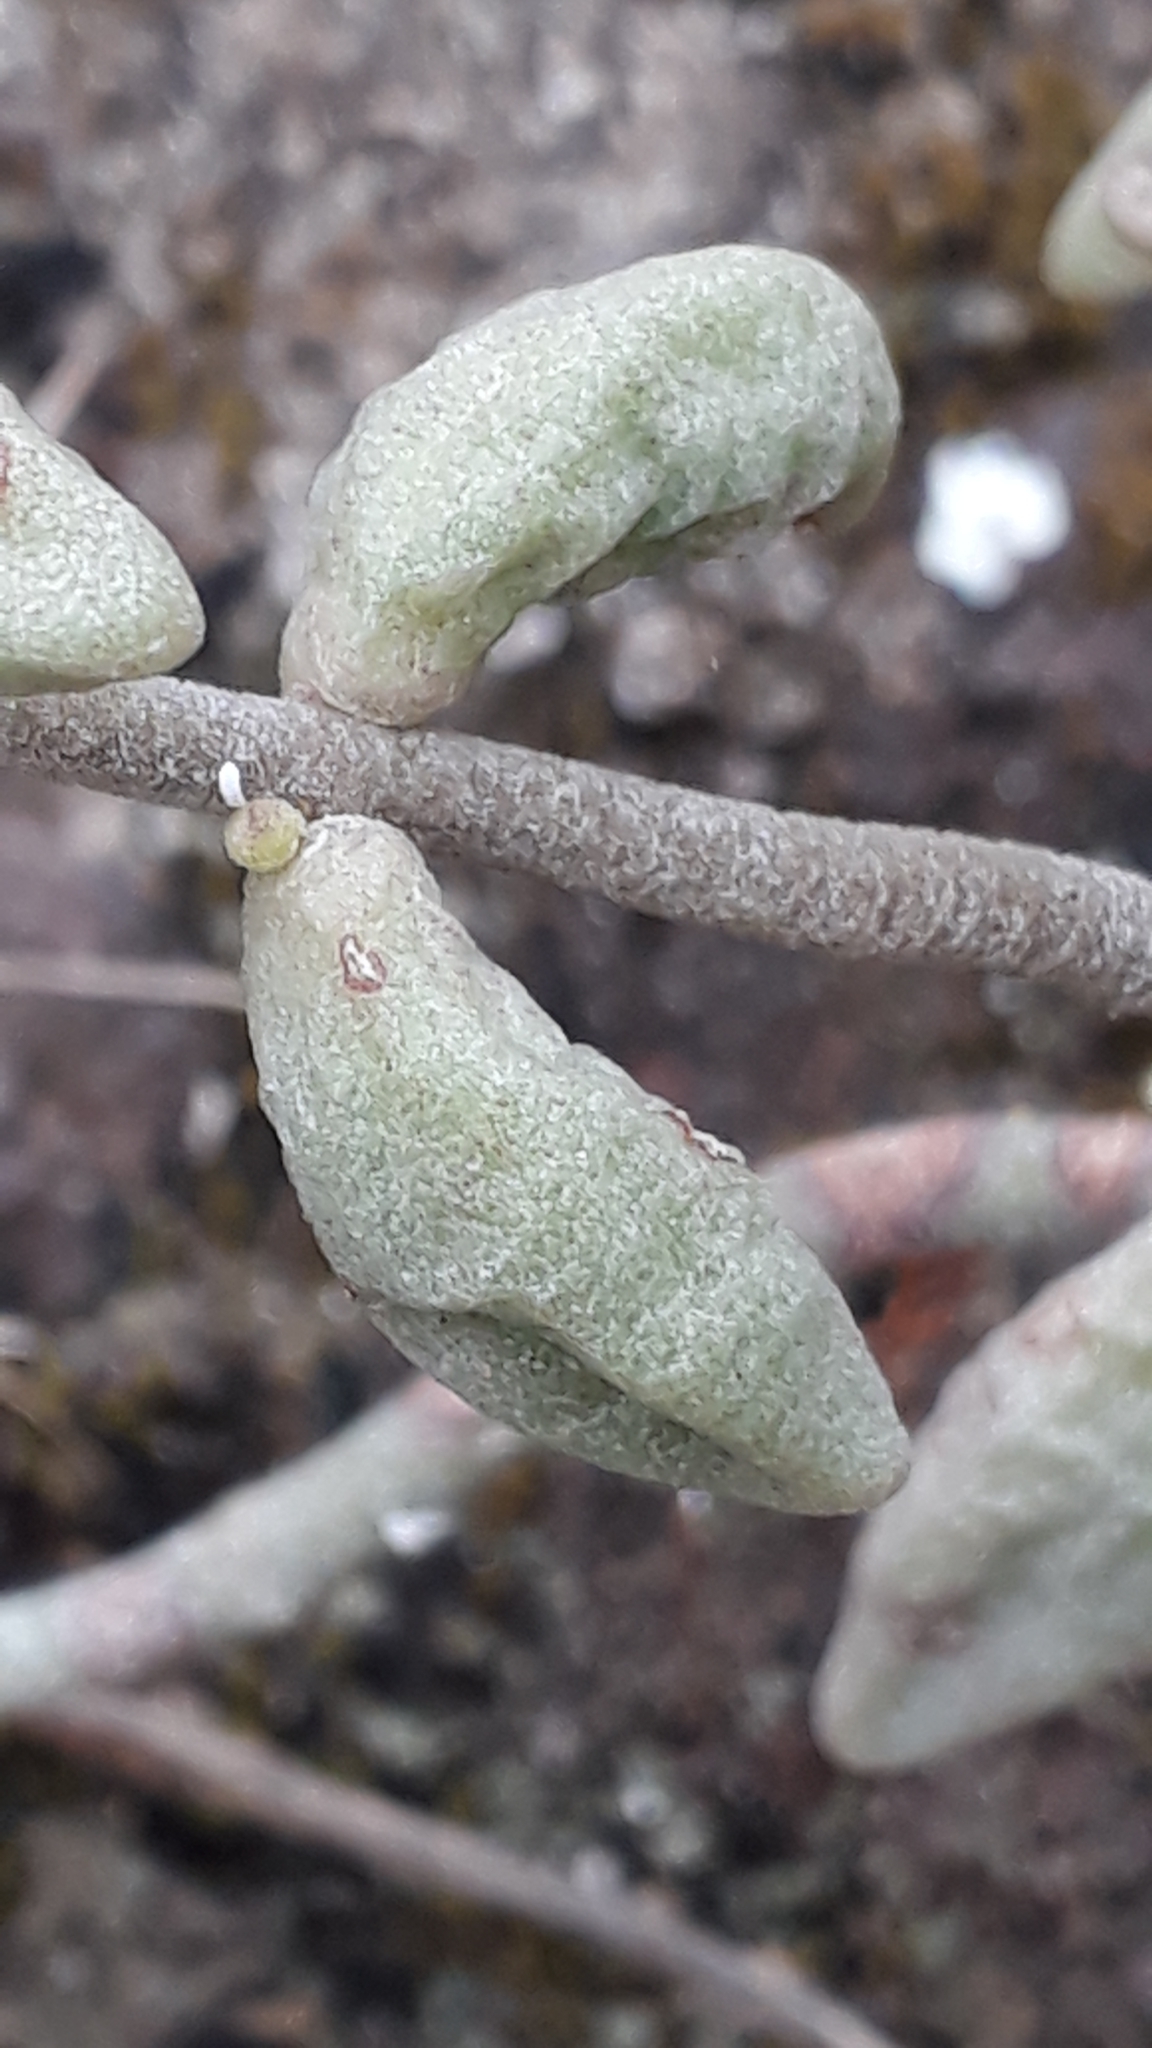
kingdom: Plantae
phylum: Tracheophyta
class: Magnoliopsida
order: Saxifragales
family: Crassulaceae
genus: Monanthes
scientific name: Monanthes laxiflora
